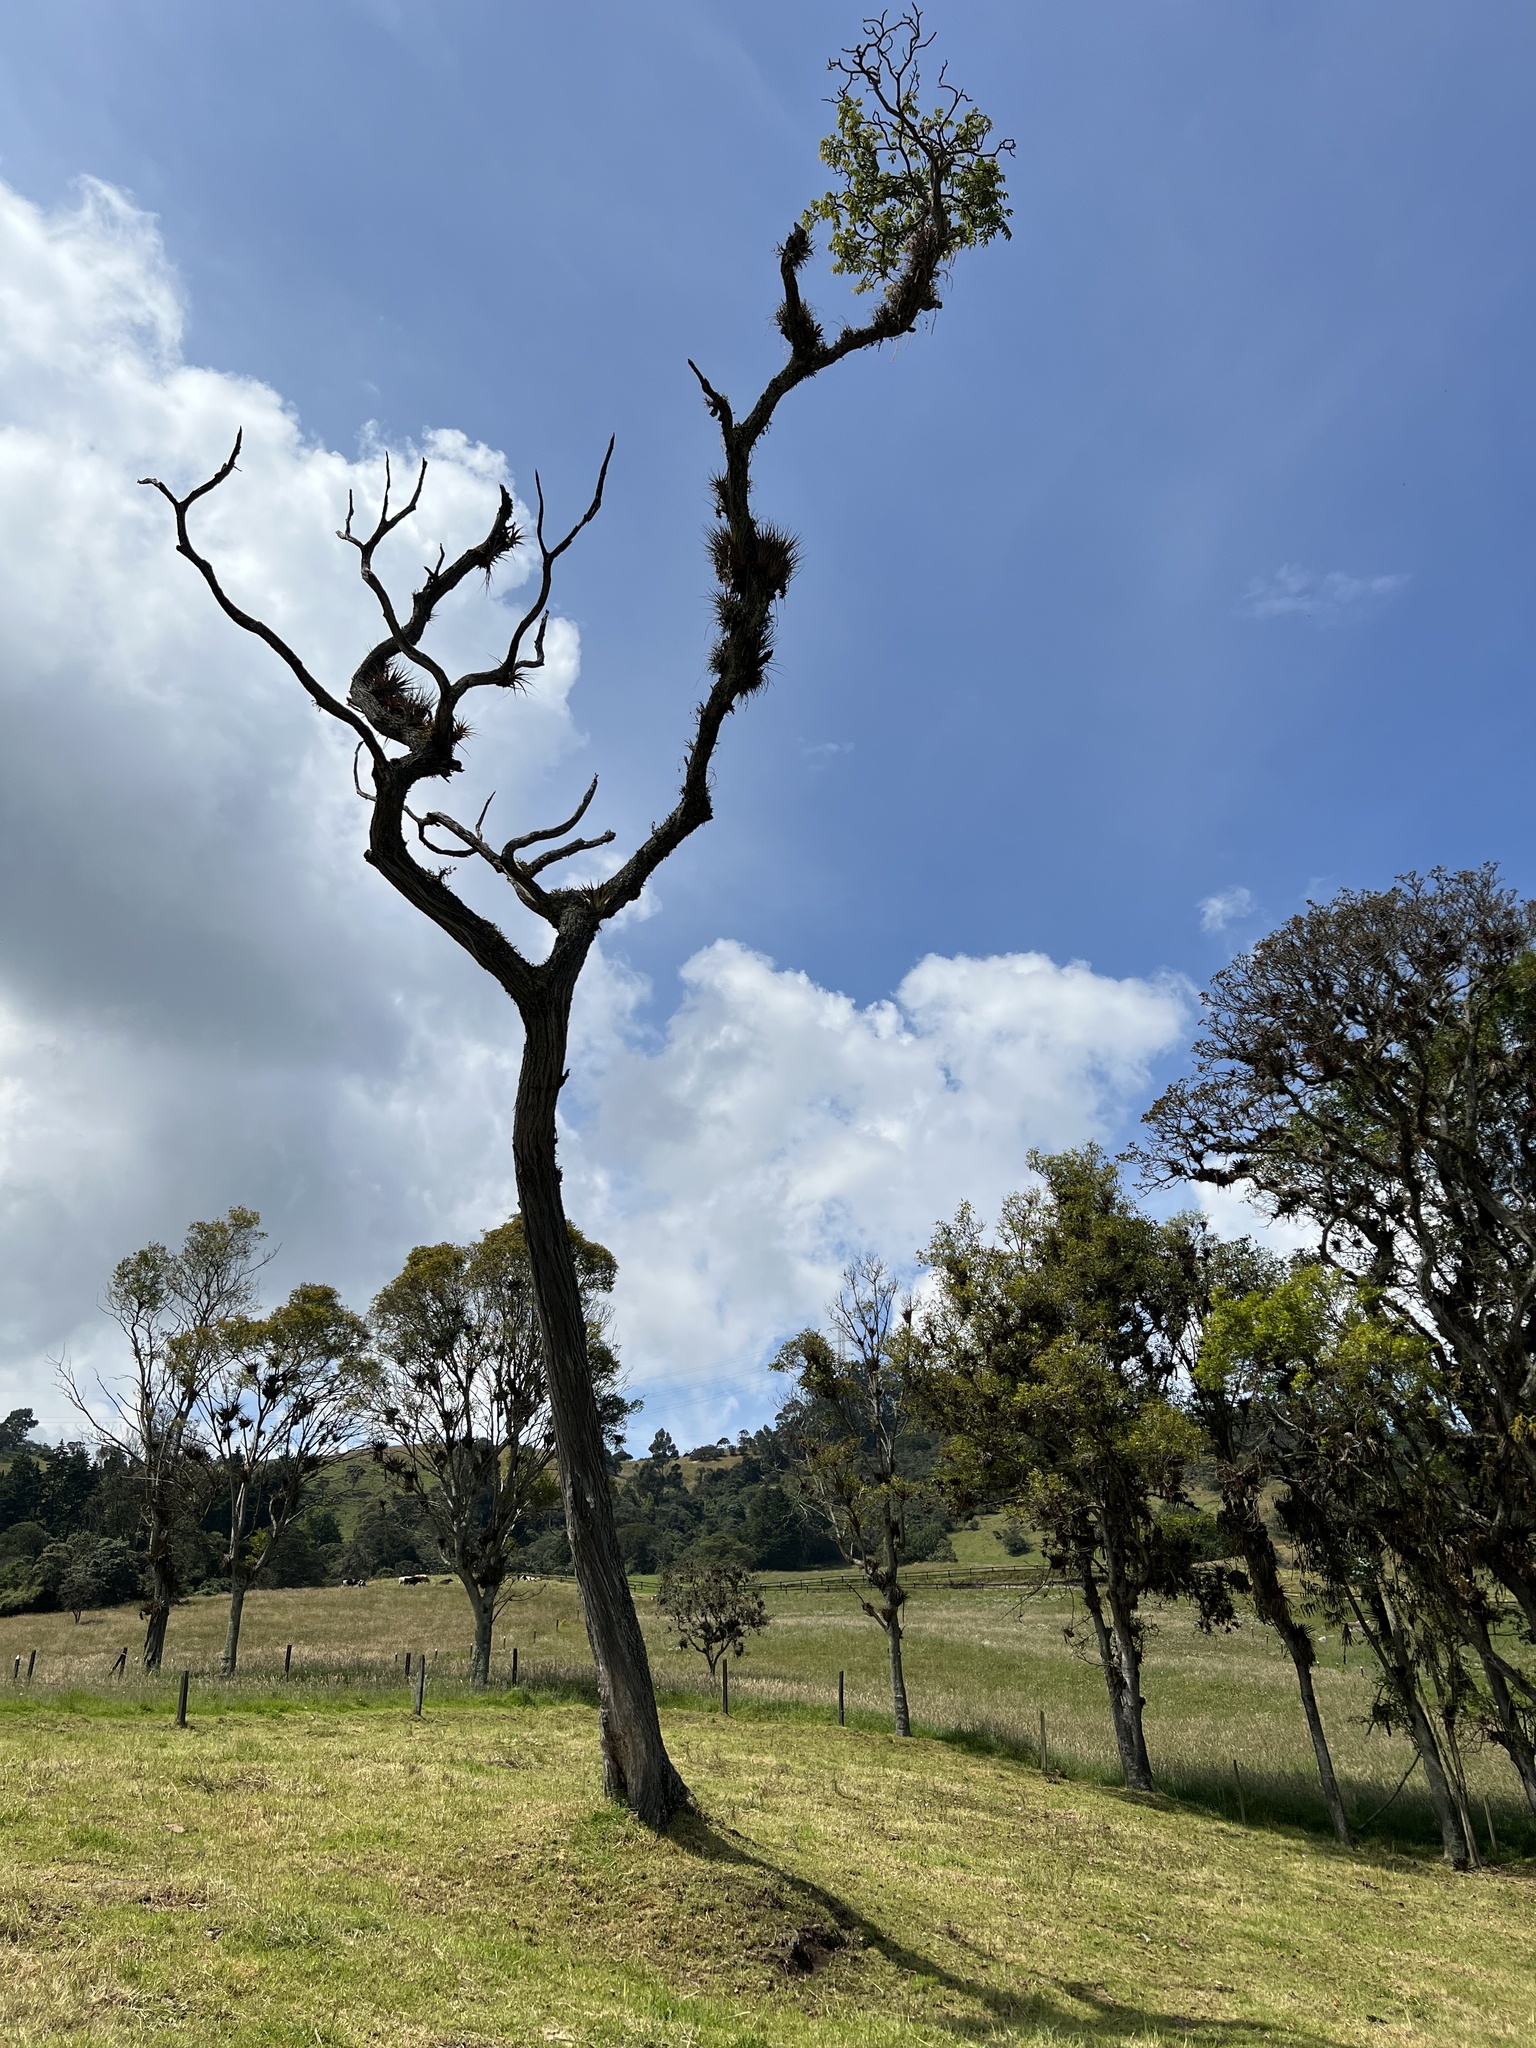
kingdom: Plantae
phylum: Tracheophyta
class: Magnoliopsida
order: Sapindales
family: Meliaceae
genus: Cedrela
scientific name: Cedrela montana
